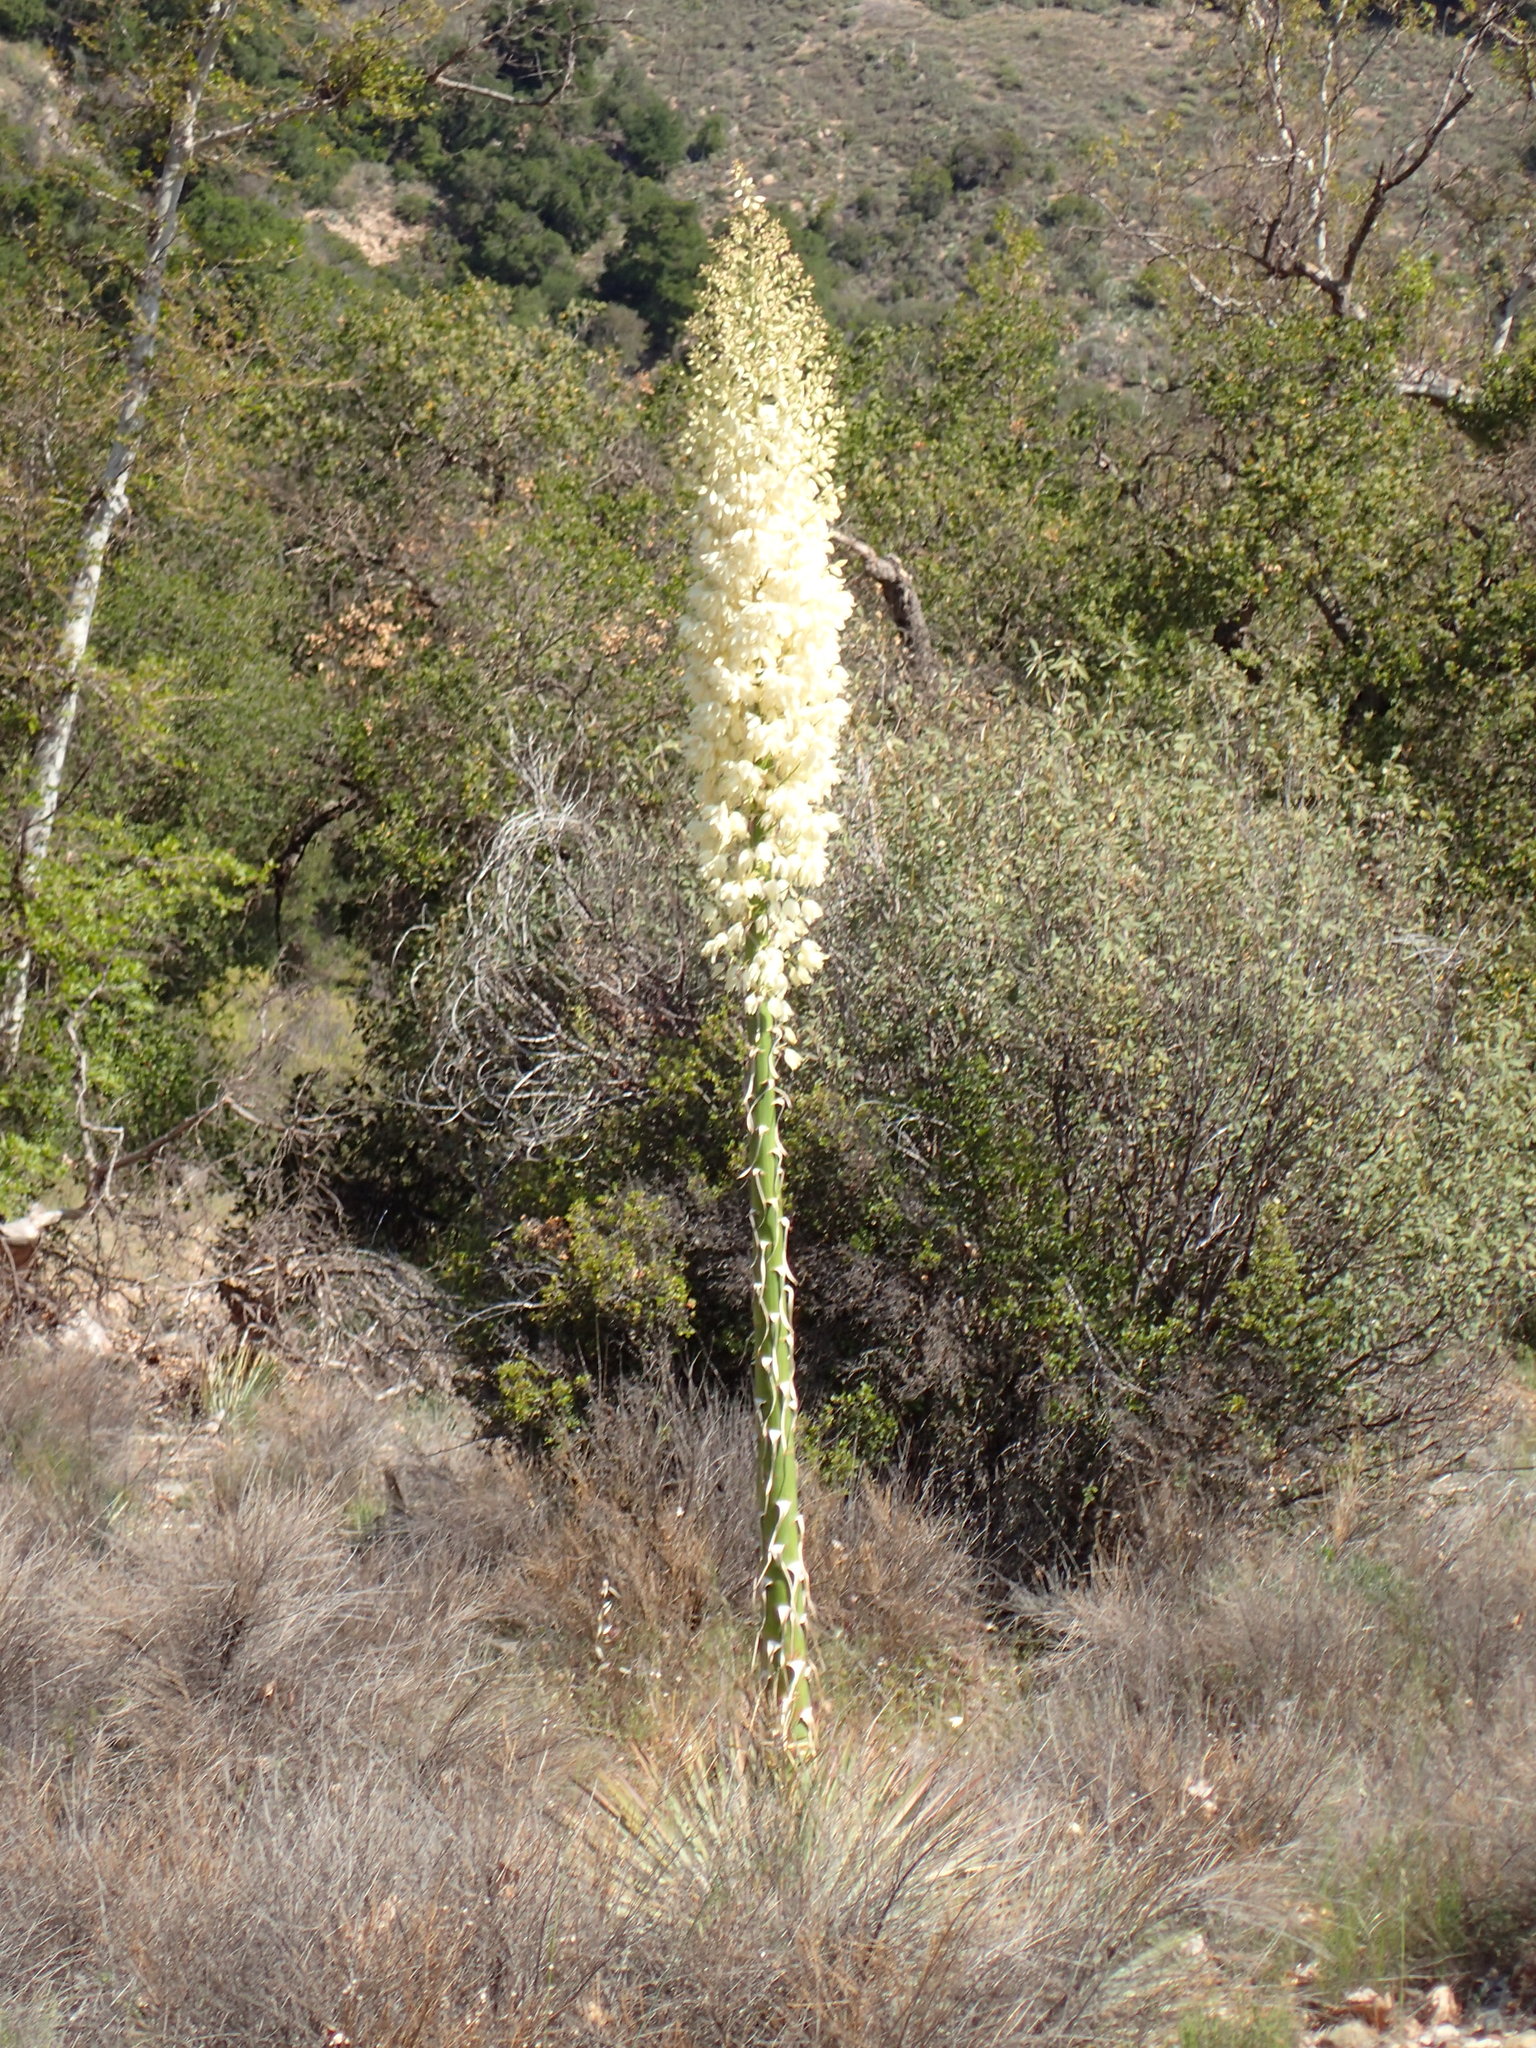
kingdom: Plantae
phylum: Tracheophyta
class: Liliopsida
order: Asparagales
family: Asparagaceae
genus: Hesperoyucca
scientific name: Hesperoyucca whipplei
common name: Our lord's-candle
